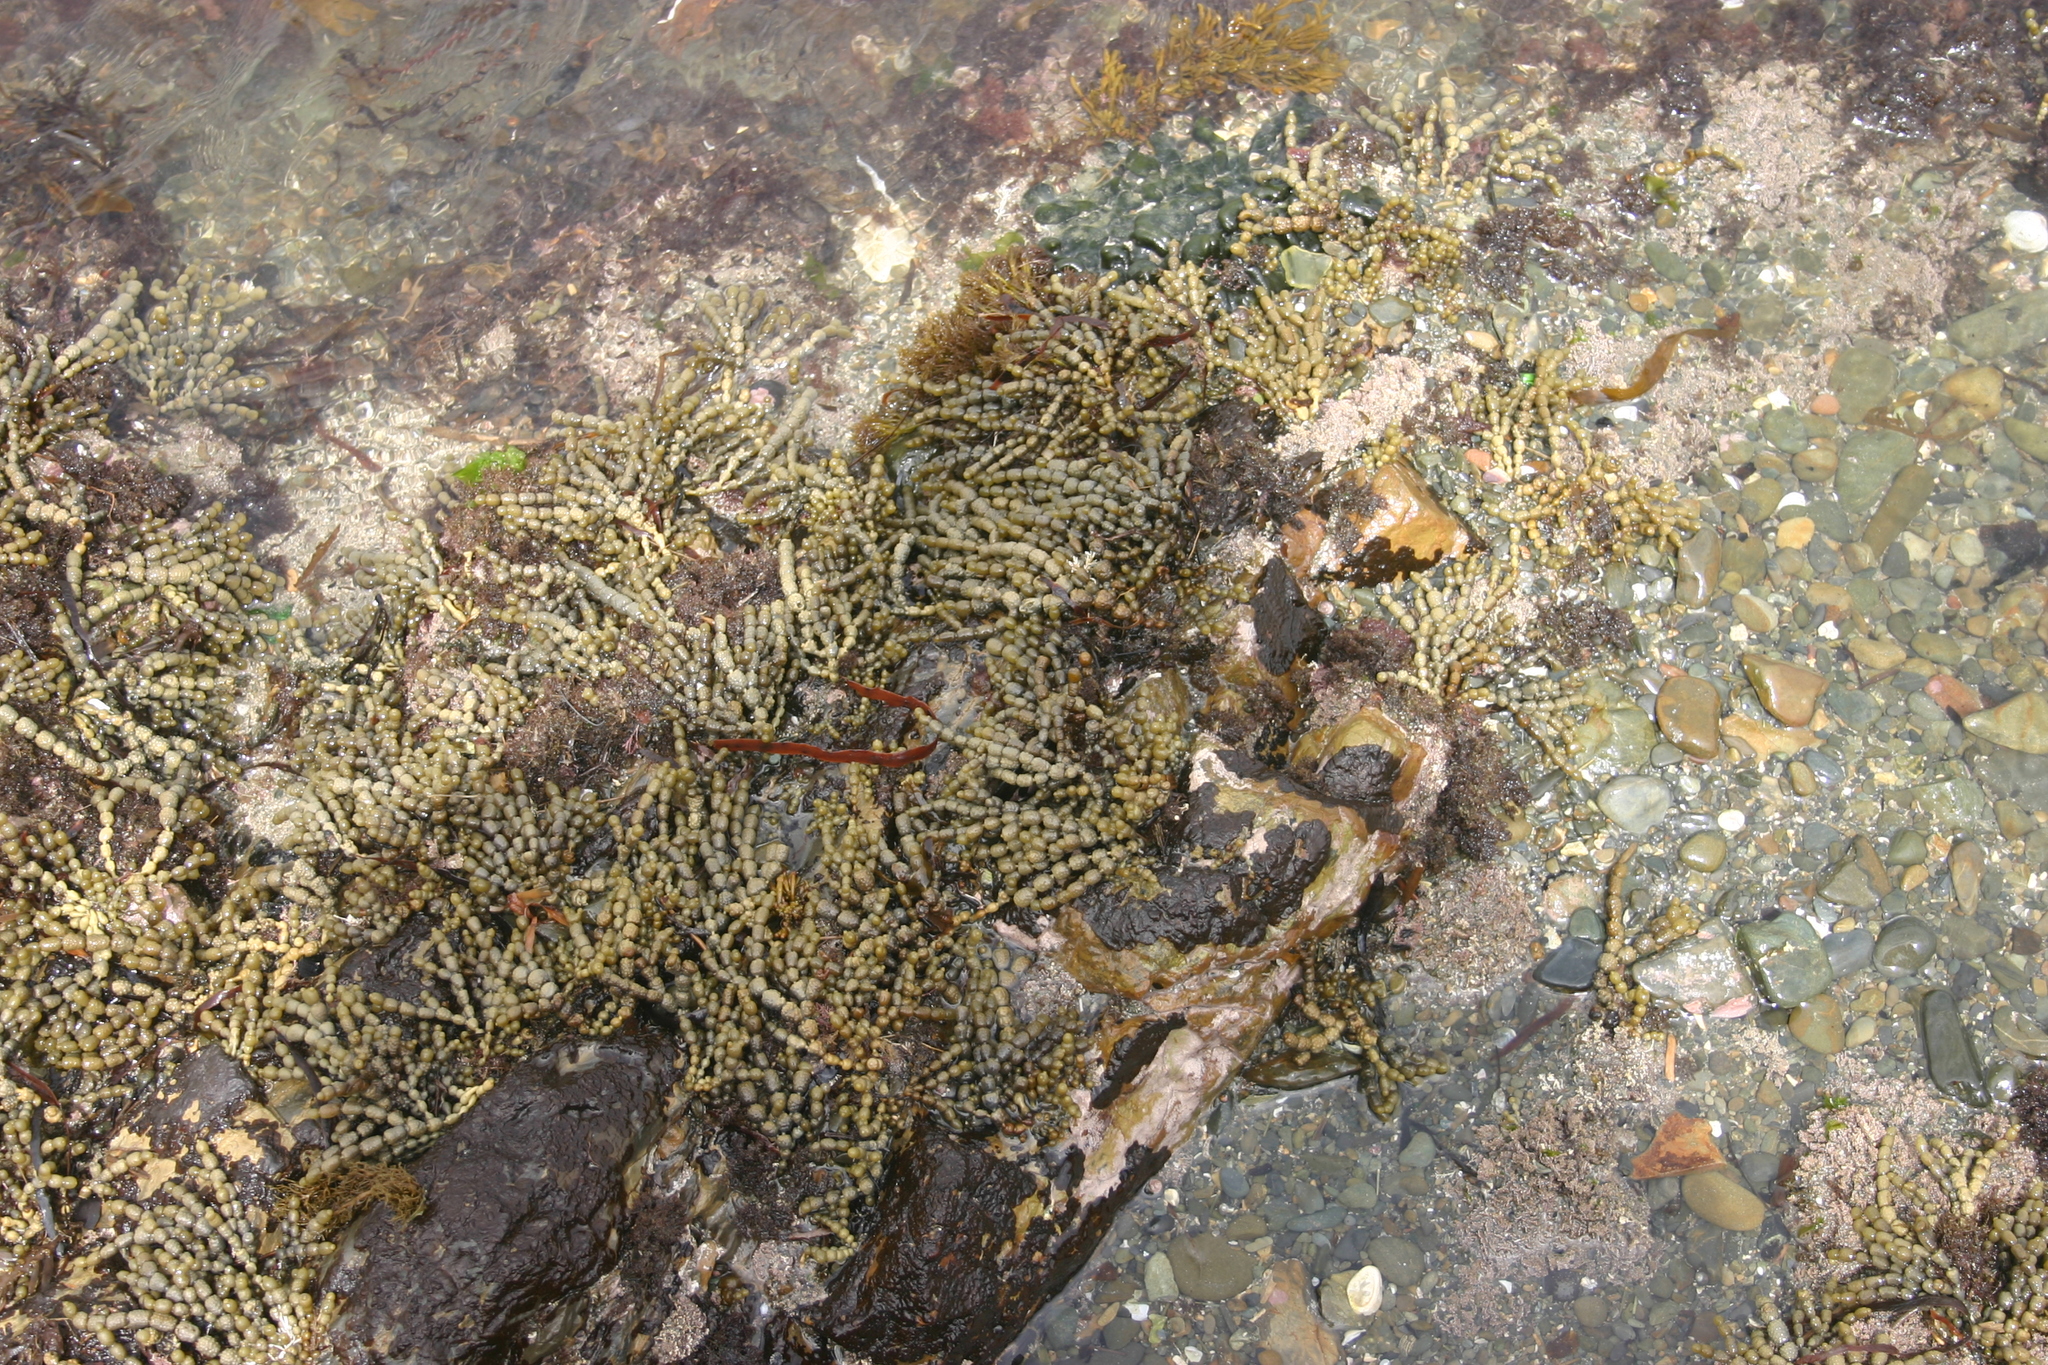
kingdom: Chromista
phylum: Ochrophyta
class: Phaeophyceae
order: Fucales
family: Hormosiraceae
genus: Hormosira
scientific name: Hormosira banksii
